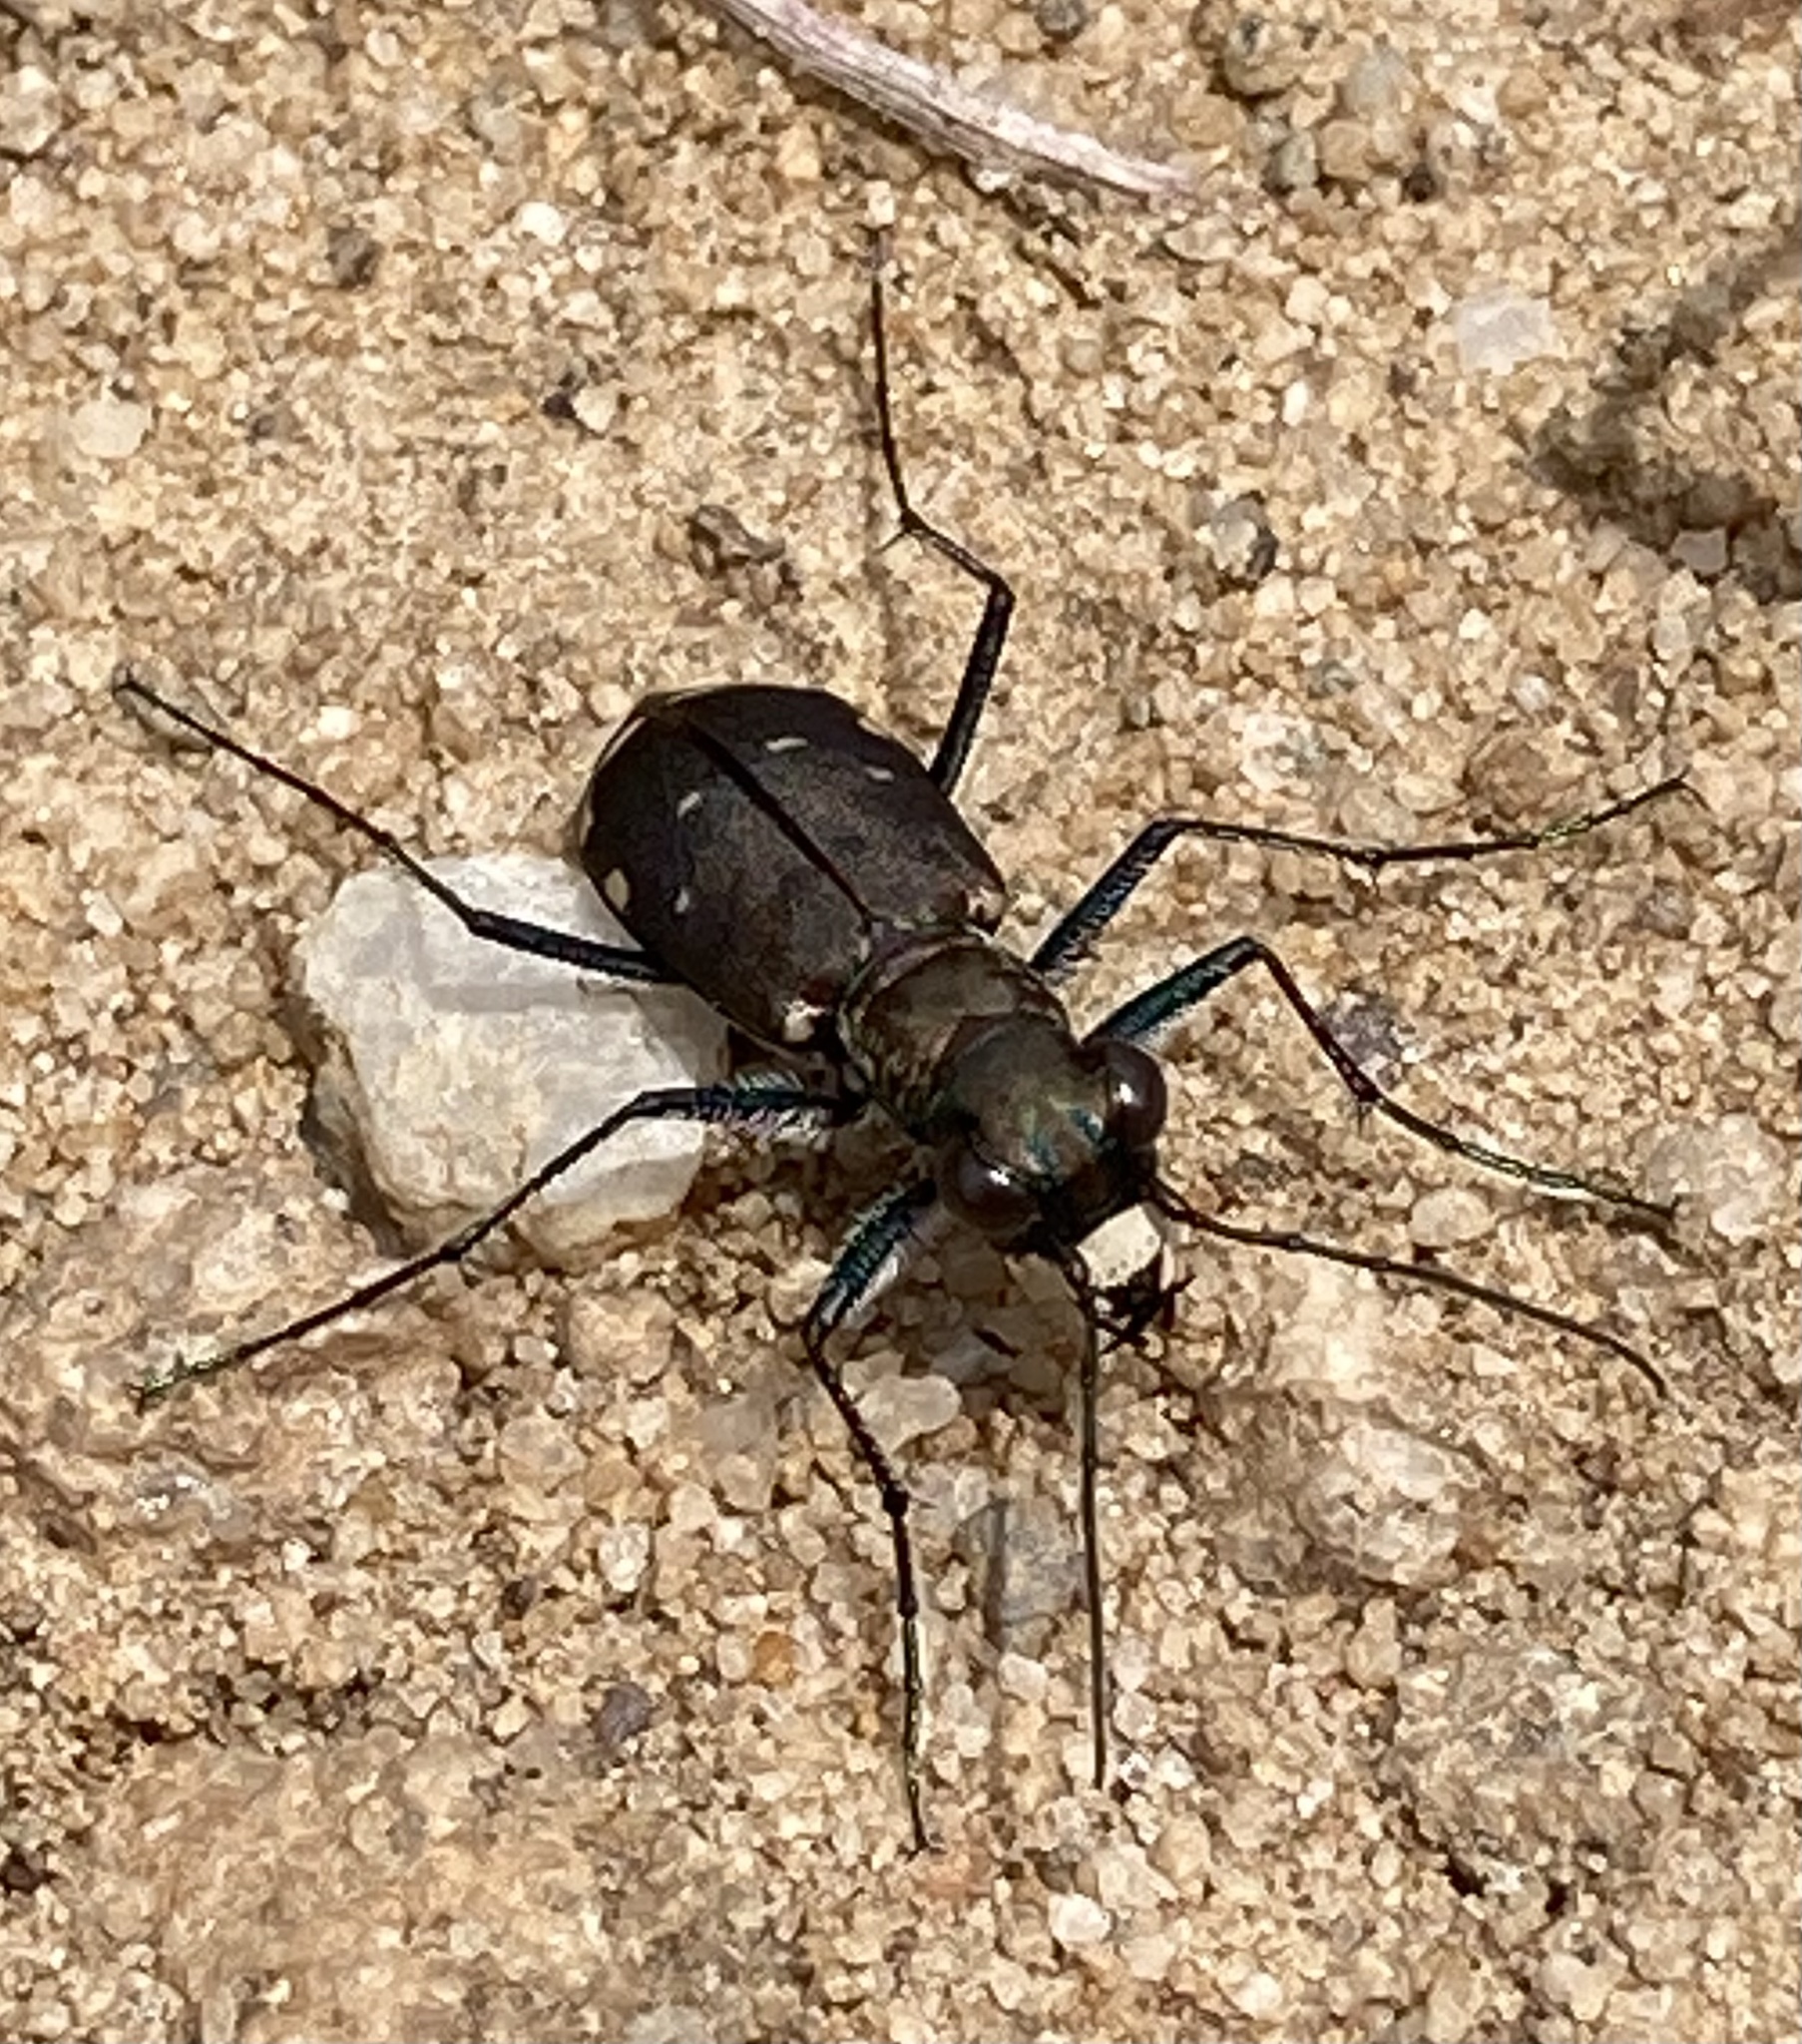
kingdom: Animalia
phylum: Arthropoda
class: Insecta
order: Coleoptera
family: Carabidae
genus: Cicindela
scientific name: Cicindela rufiventris
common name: Eastern red-bellied tiger beetle
